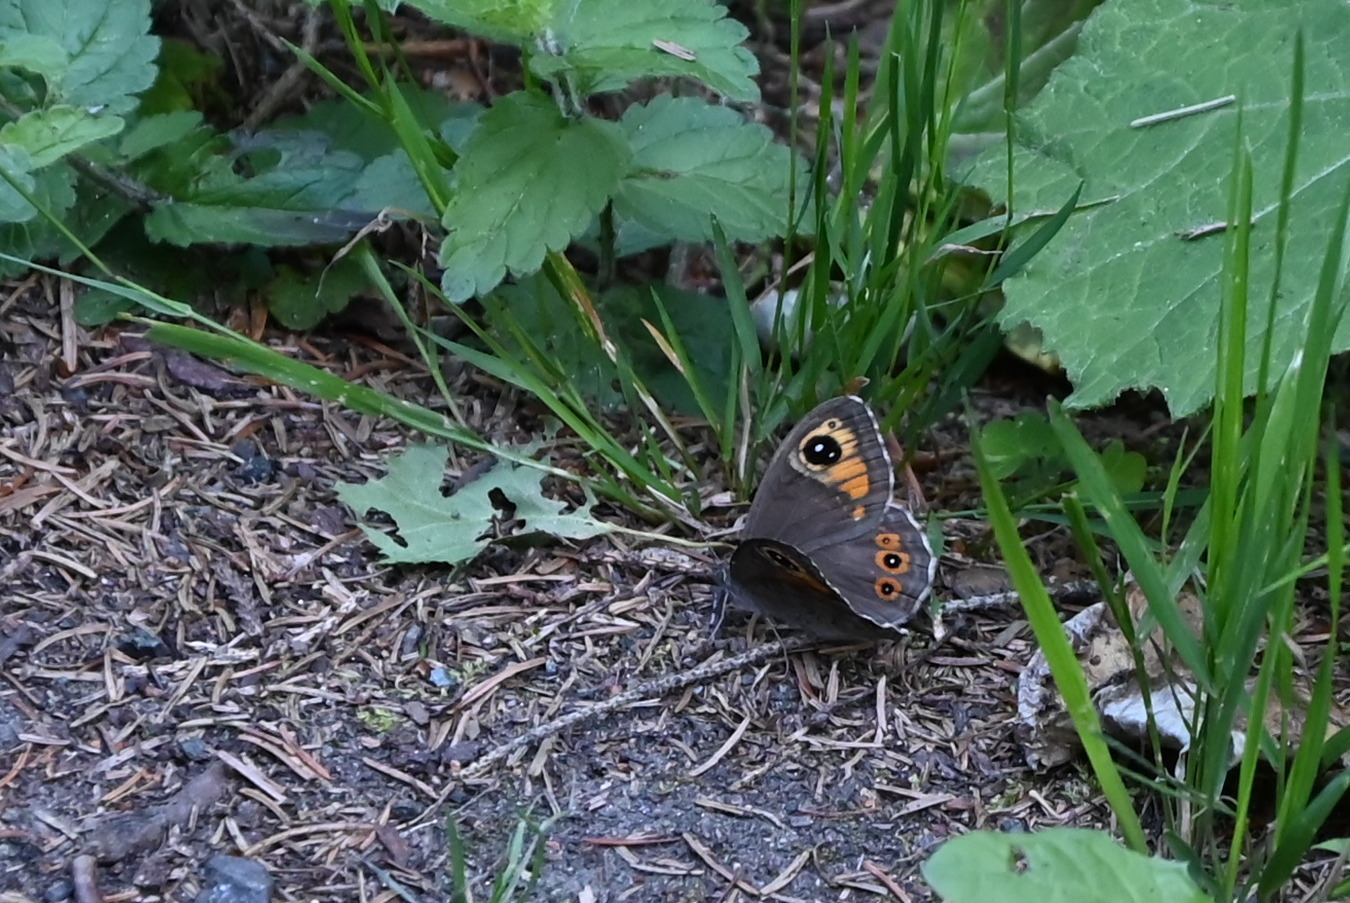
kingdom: Animalia
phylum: Arthropoda
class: Insecta
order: Lepidoptera
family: Nymphalidae
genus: Pararge
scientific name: Pararge Lasiommata maera
